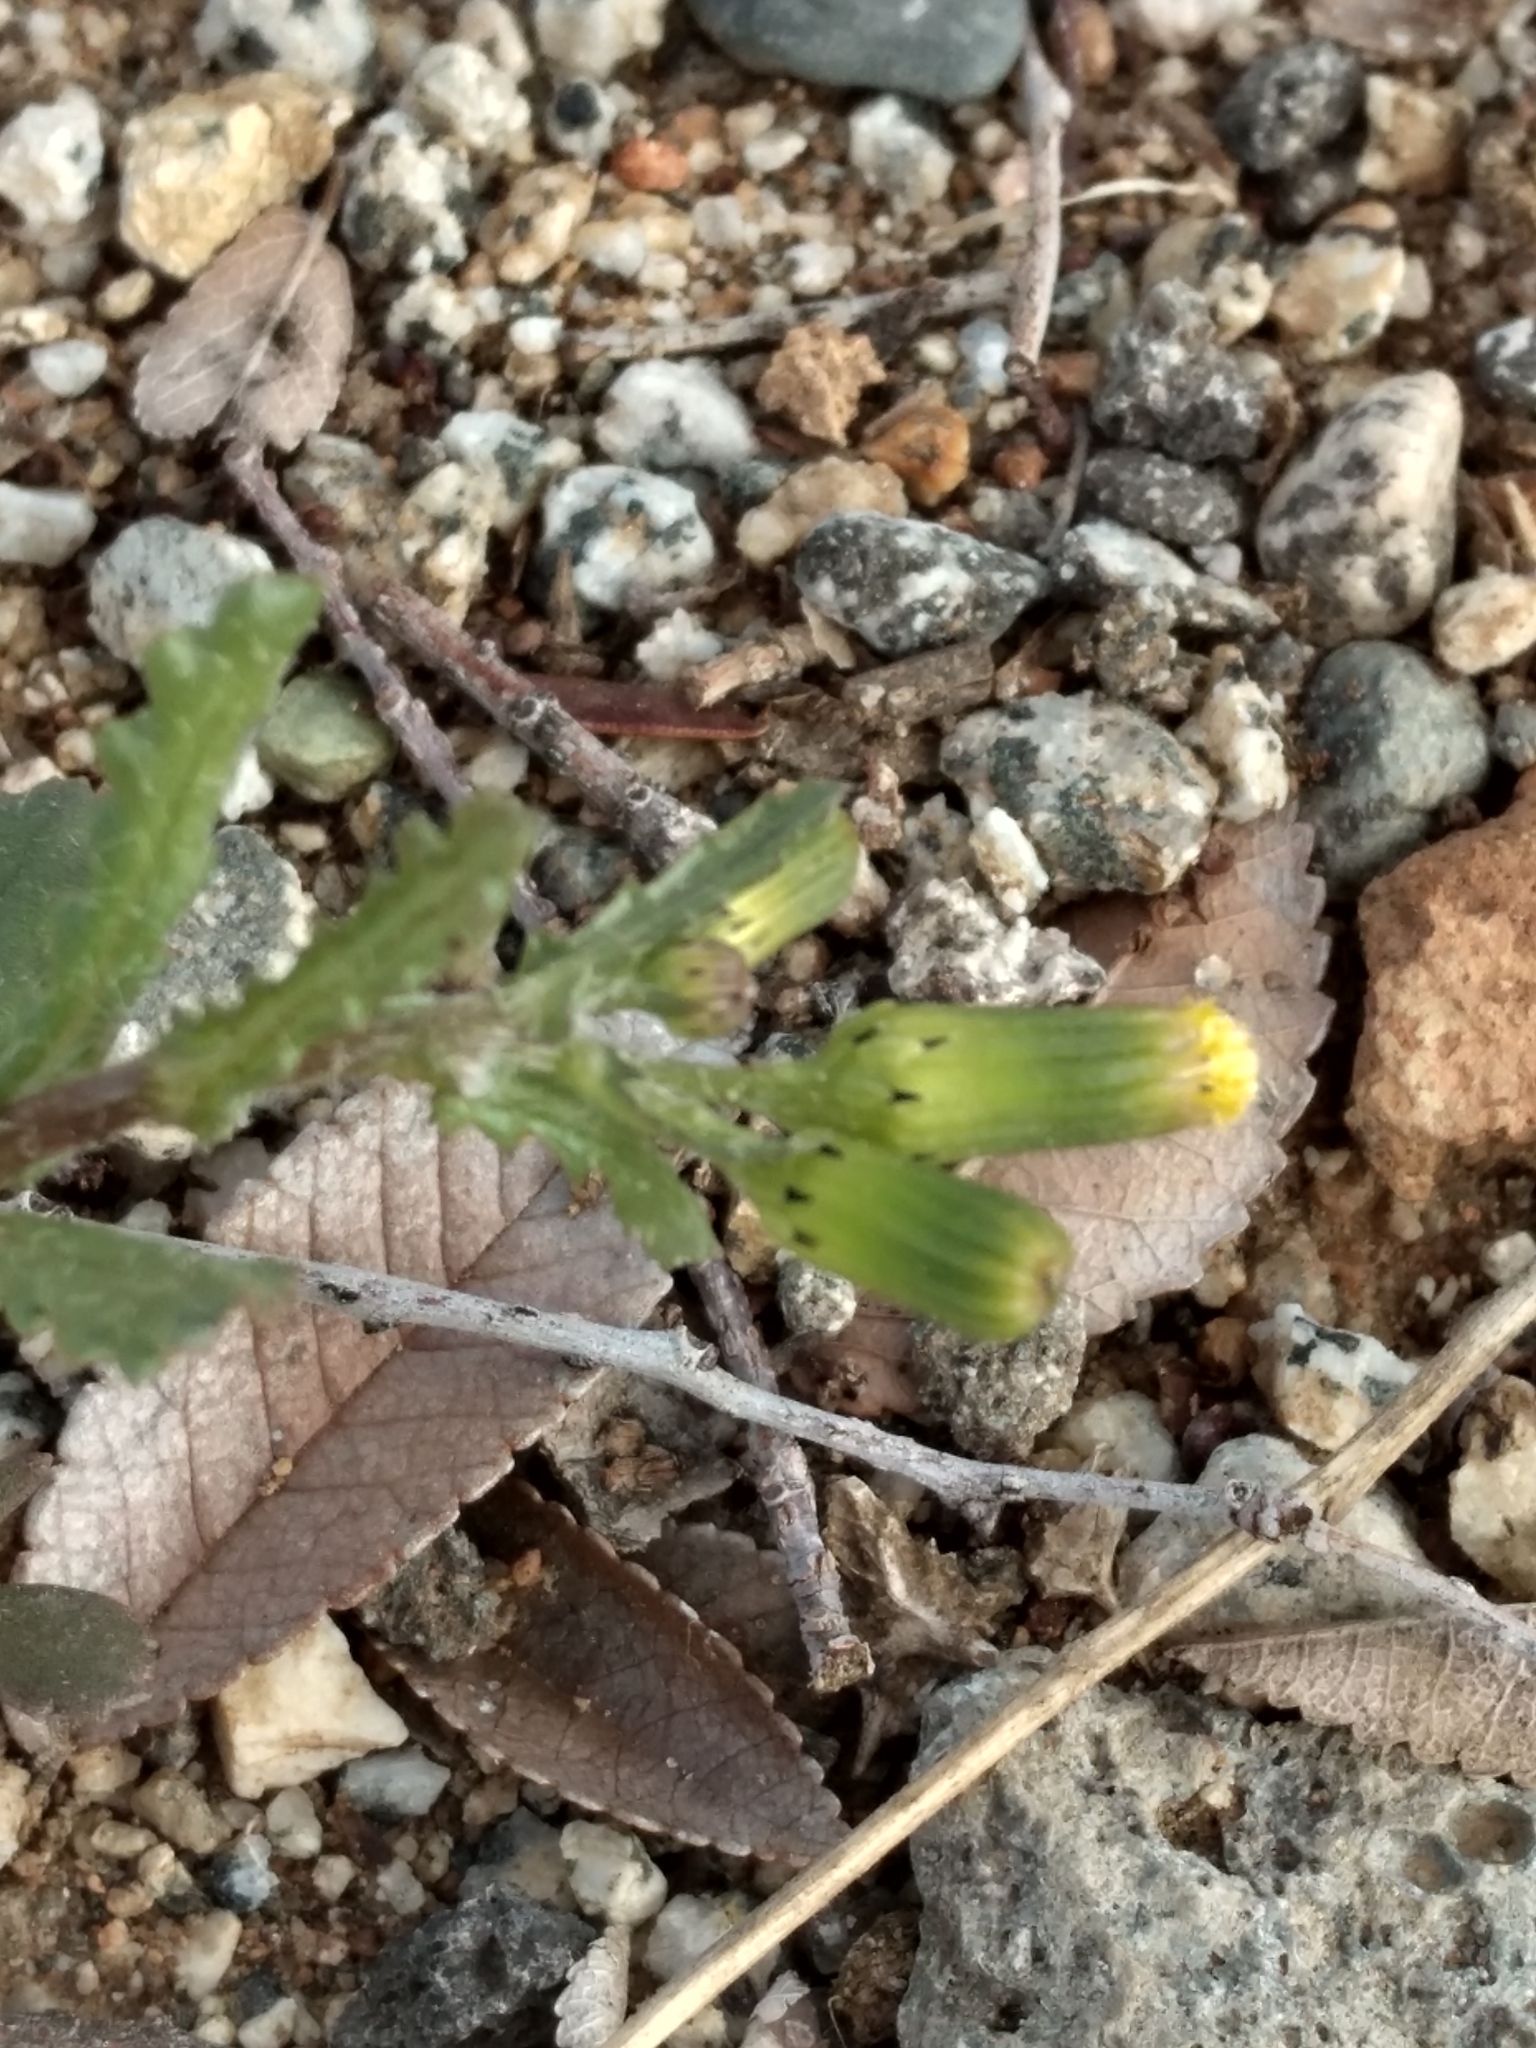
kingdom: Plantae
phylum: Tracheophyta
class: Magnoliopsida
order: Asterales
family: Asteraceae
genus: Senecio
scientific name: Senecio vulgaris
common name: Old-man-in-the-spring
